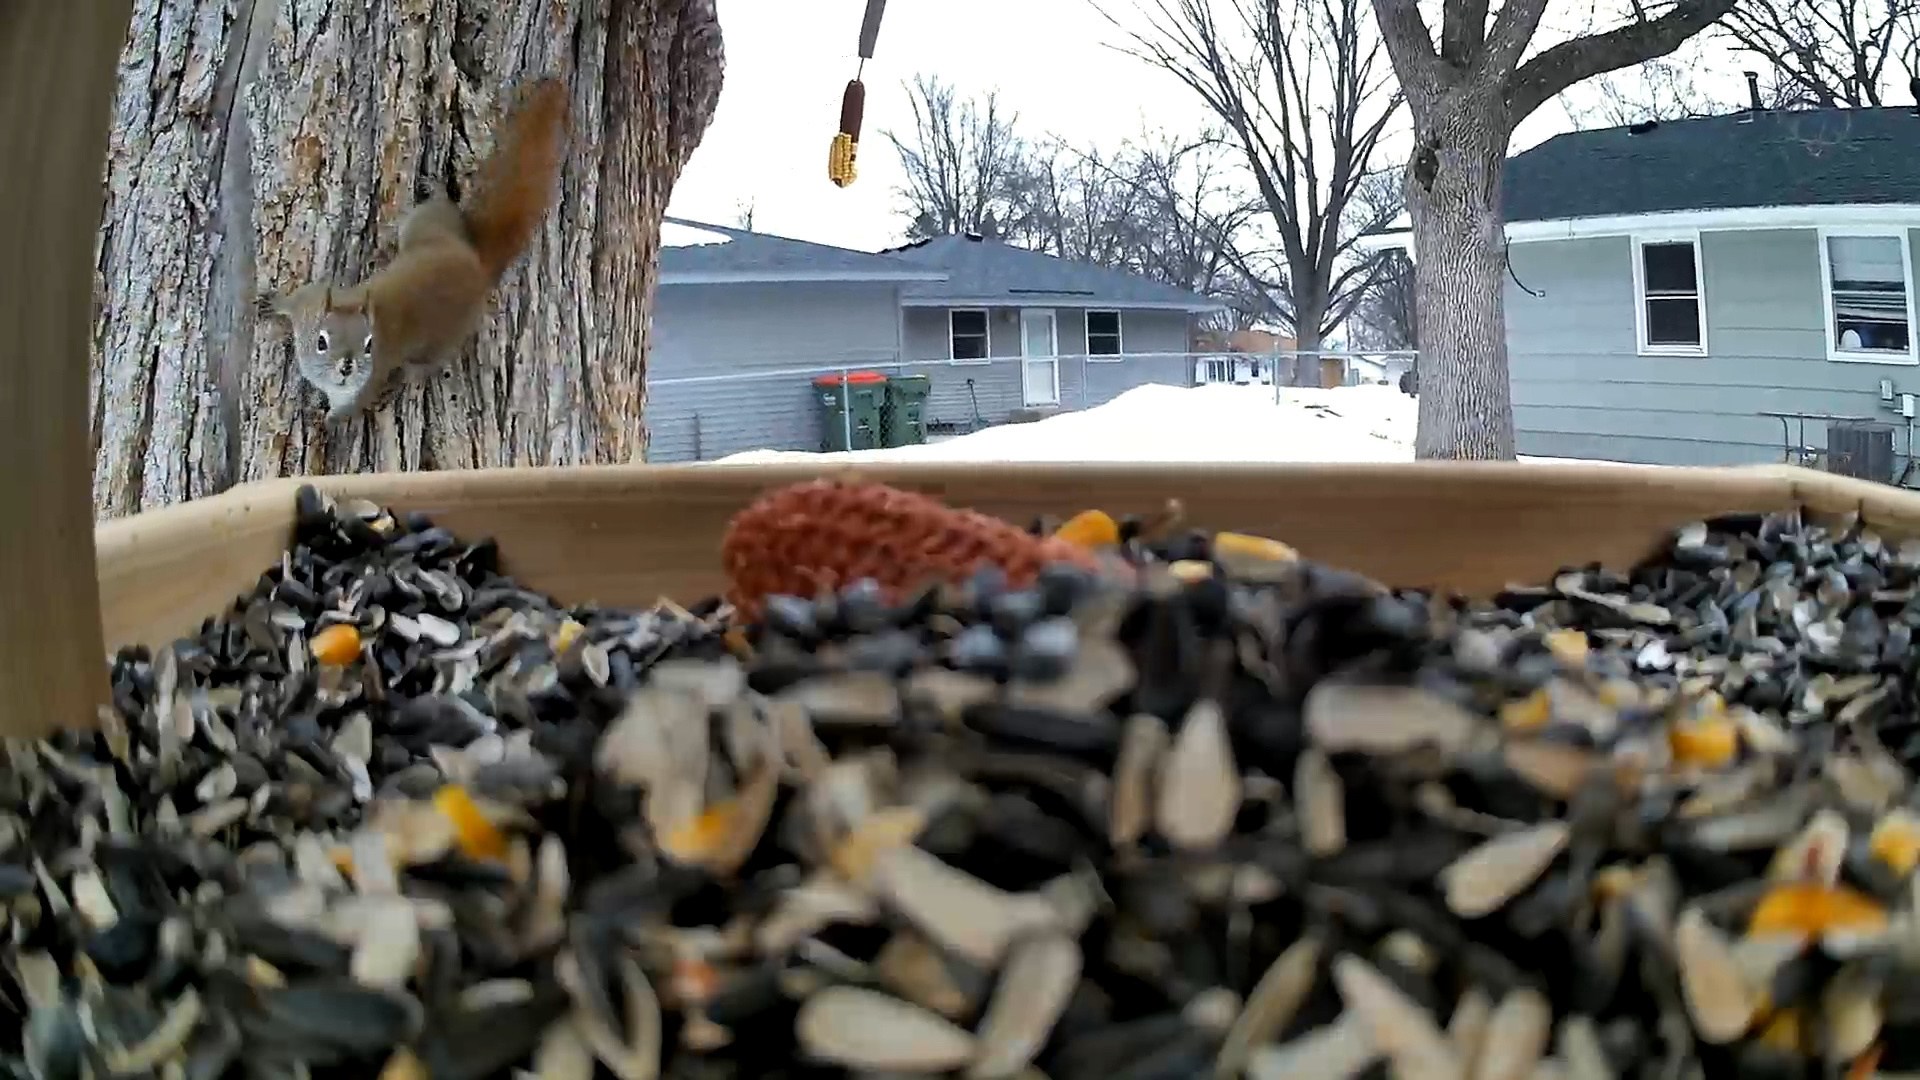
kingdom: Animalia
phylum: Chordata
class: Mammalia
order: Rodentia
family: Sciuridae
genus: Tamiasciurus
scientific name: Tamiasciurus hudsonicus
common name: Red squirrel
